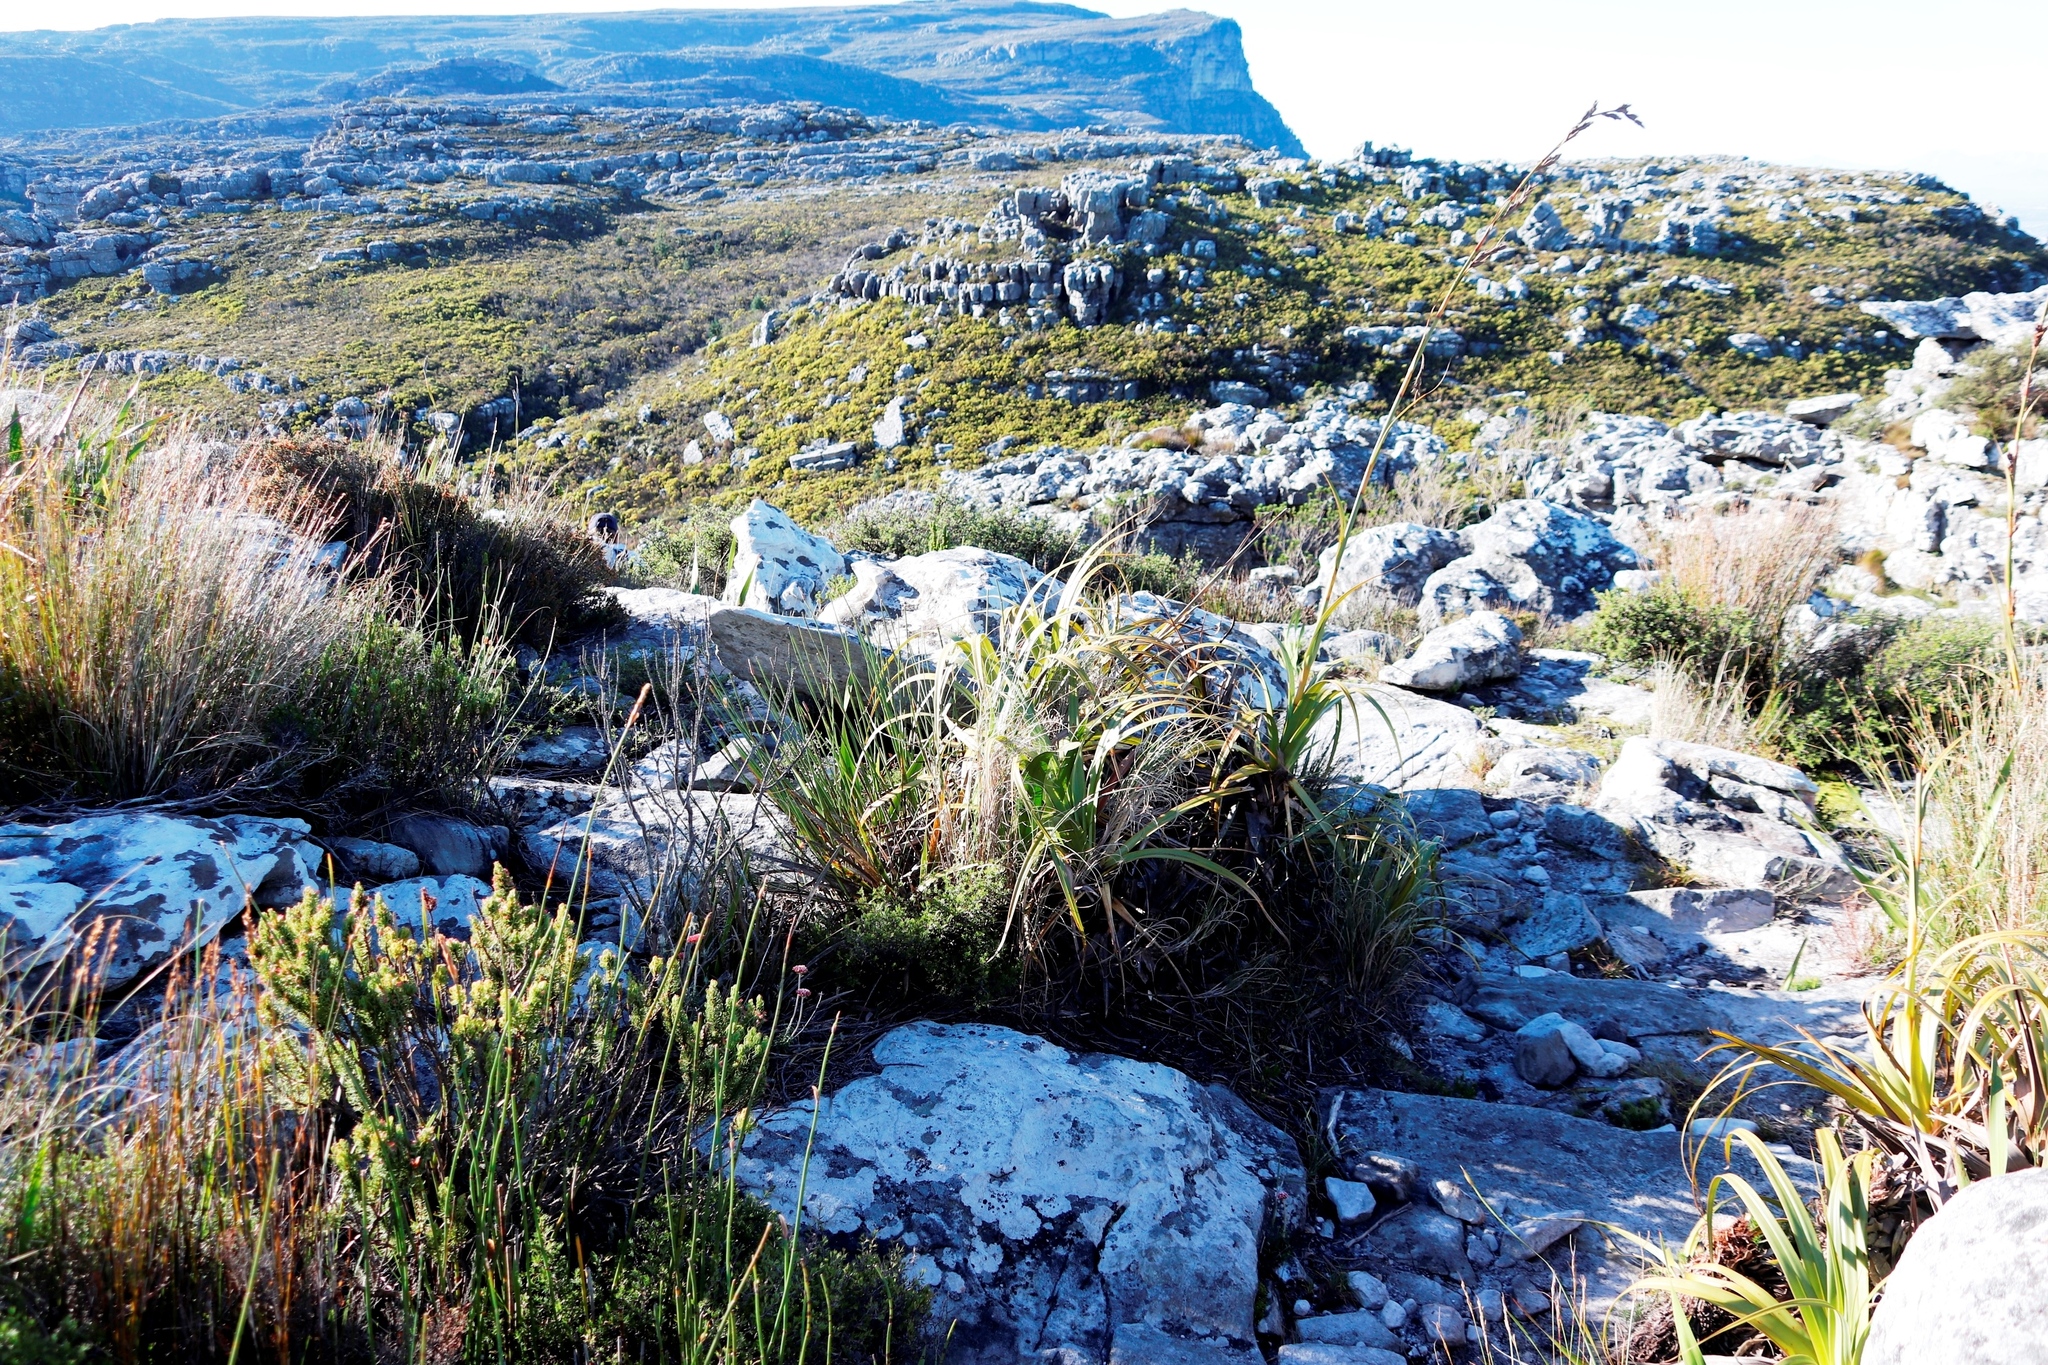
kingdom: Plantae
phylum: Tracheophyta
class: Liliopsida
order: Poales
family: Cyperaceae
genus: Tetraria
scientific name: Tetraria thermalis
